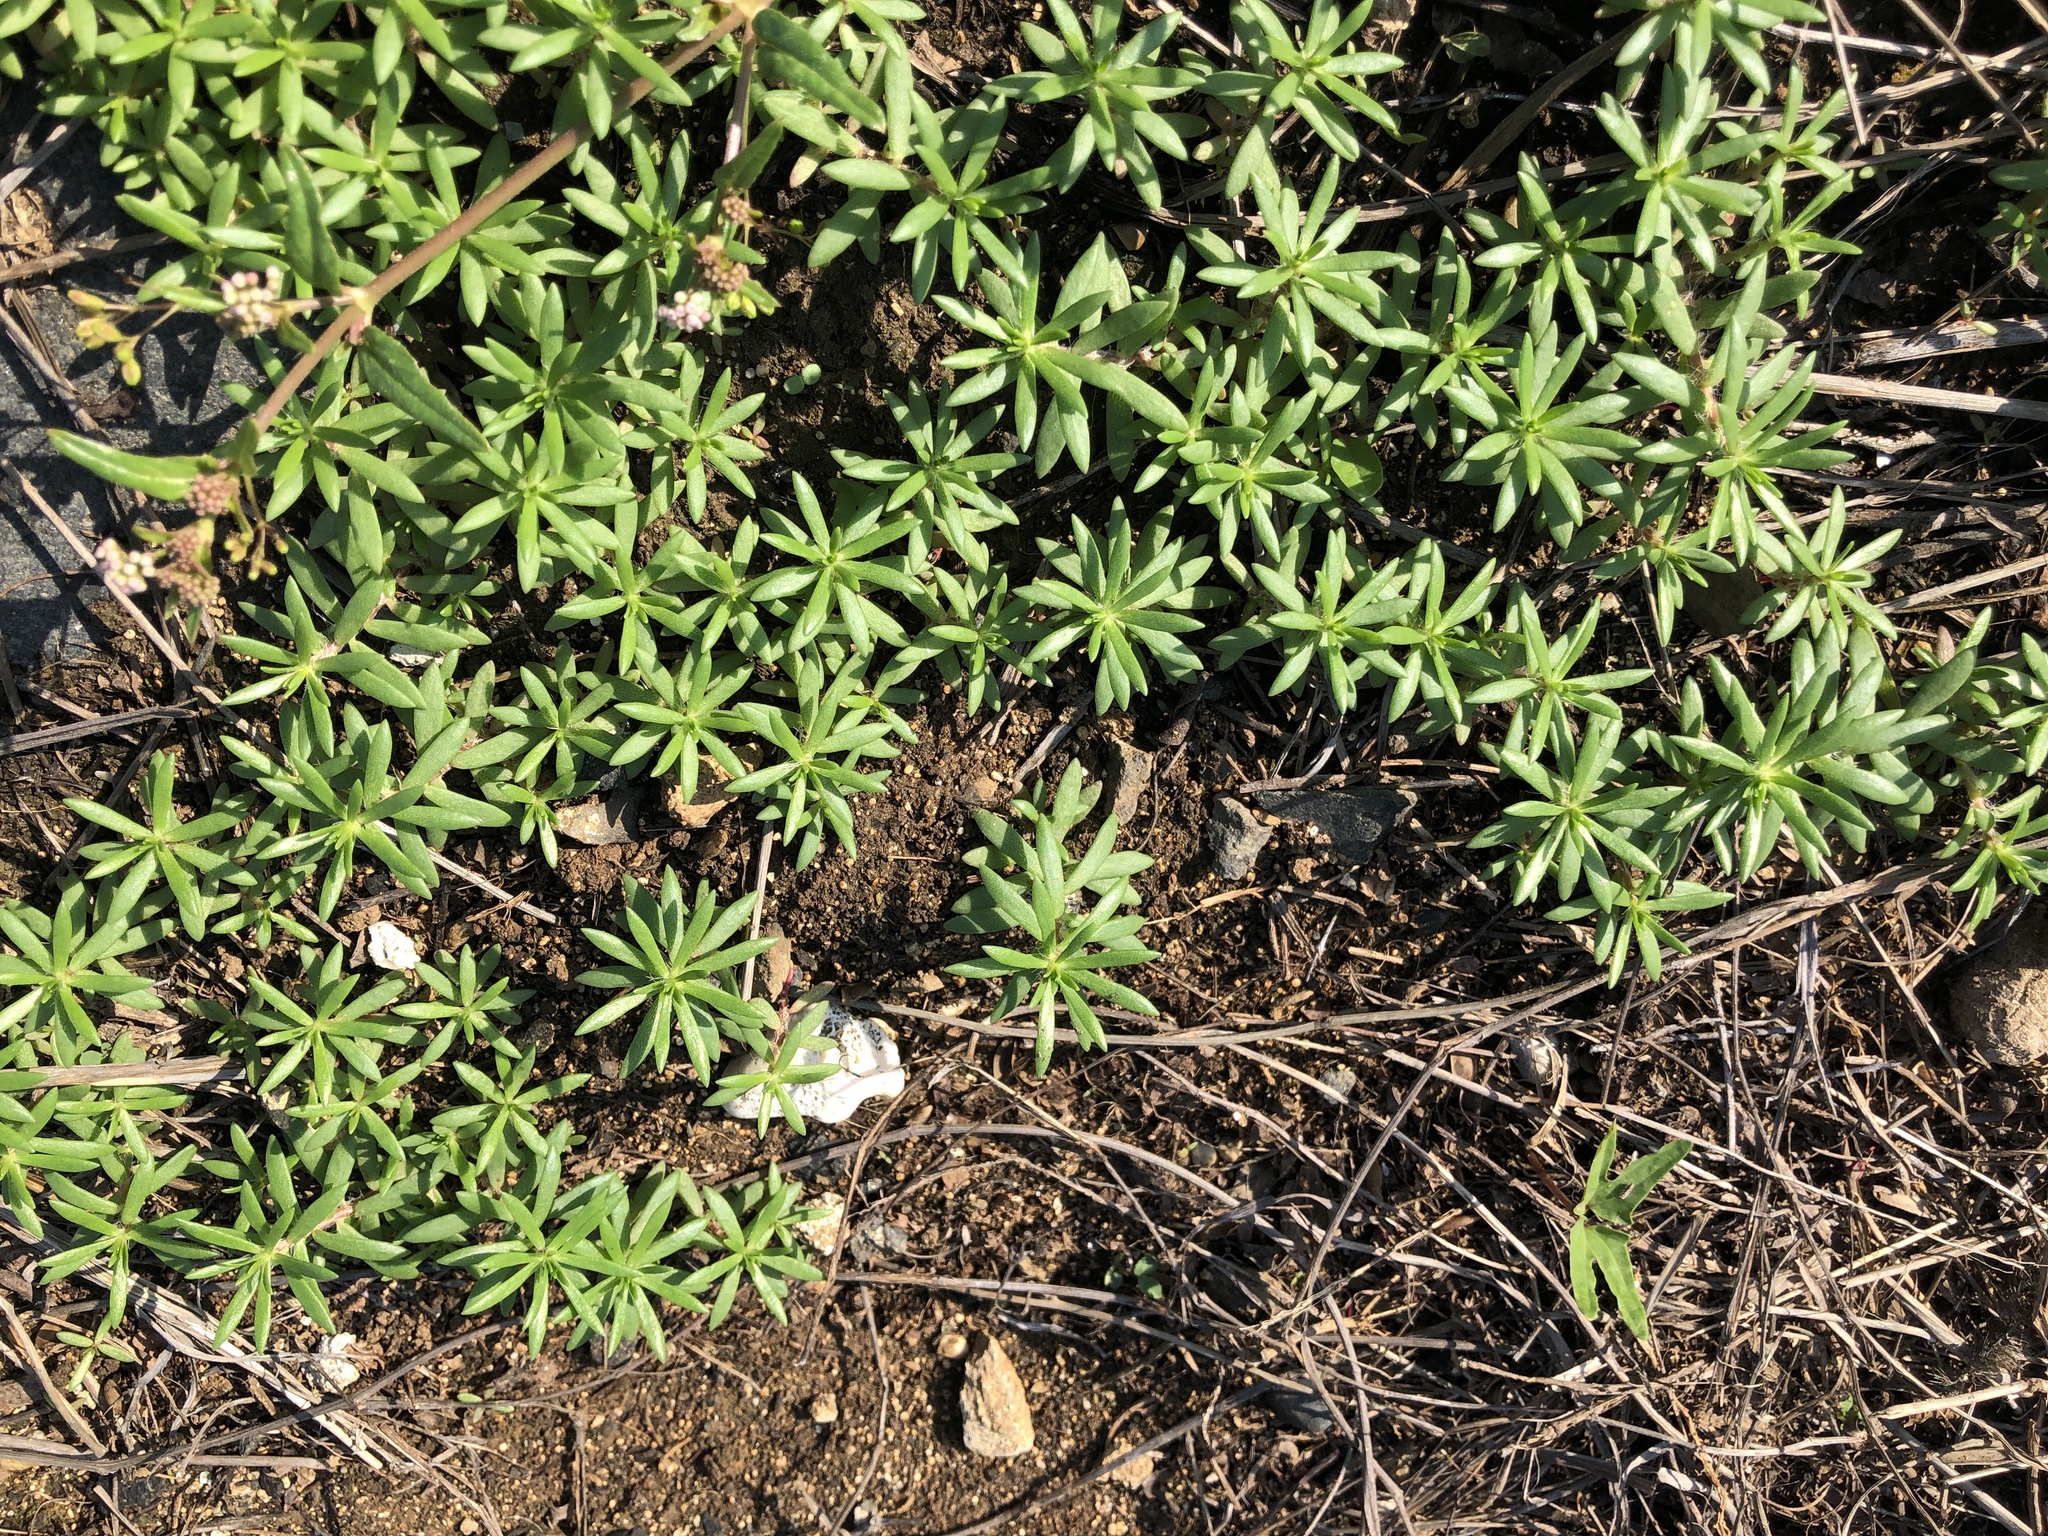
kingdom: Plantae
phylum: Tracheophyta
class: Magnoliopsida
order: Caryophyllales
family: Portulacaceae
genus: Portulaca
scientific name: Portulaca pilosa
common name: Kiss me quick
